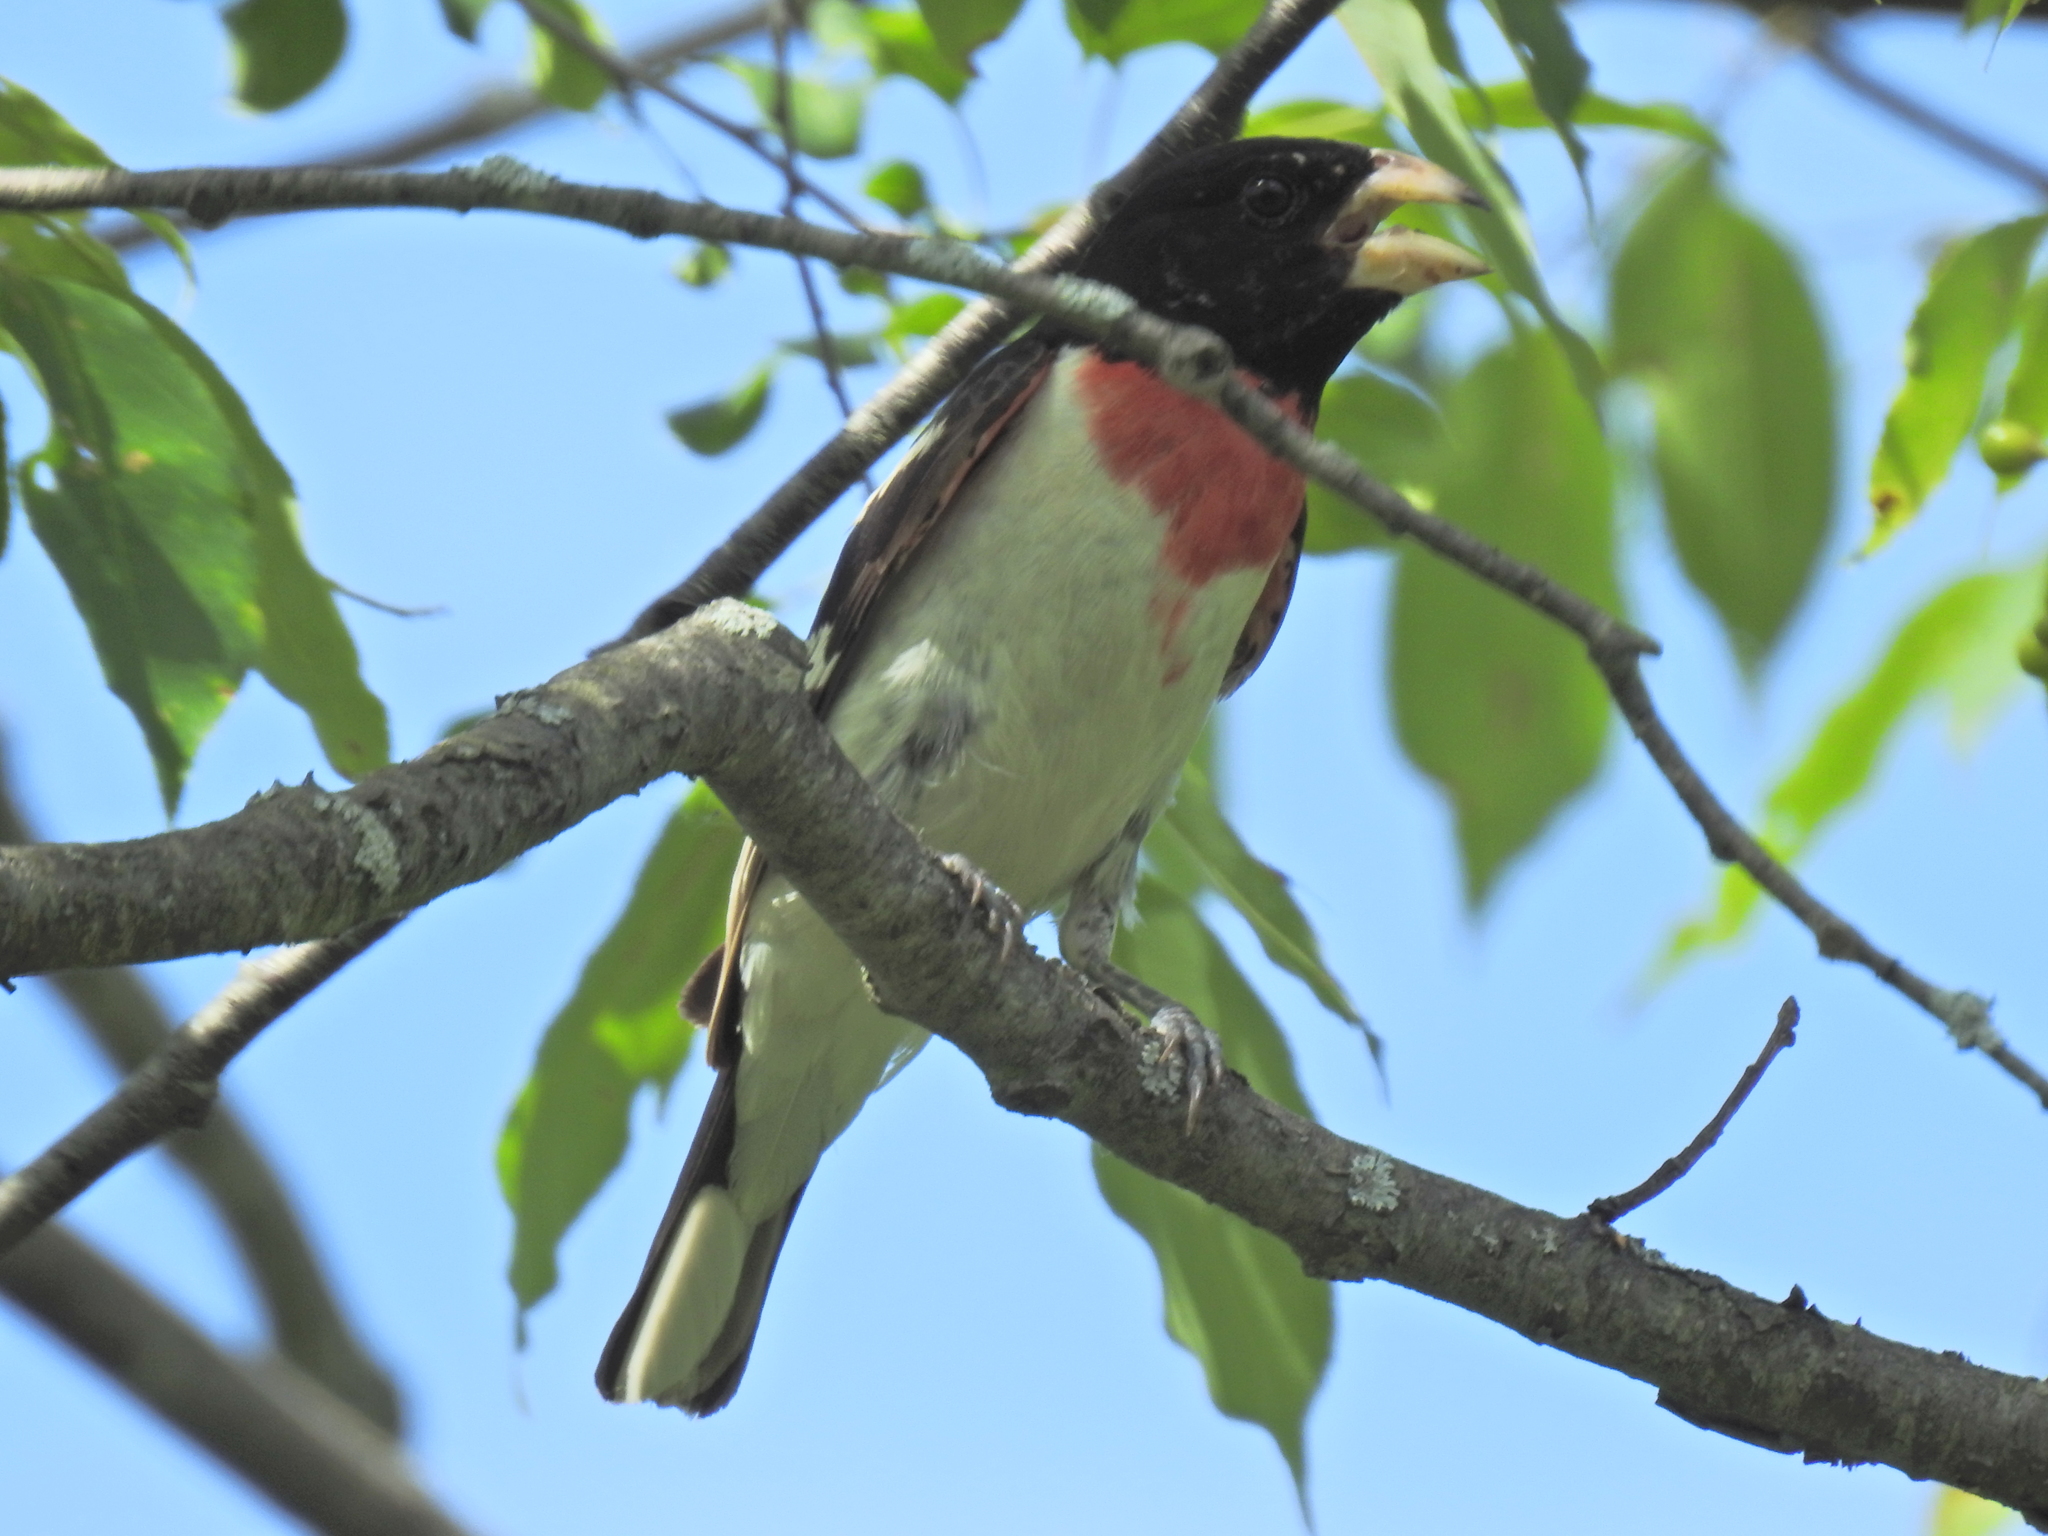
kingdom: Animalia
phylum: Chordata
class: Aves
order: Passeriformes
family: Cardinalidae
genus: Pheucticus
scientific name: Pheucticus ludovicianus
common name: Rose-breasted grosbeak
